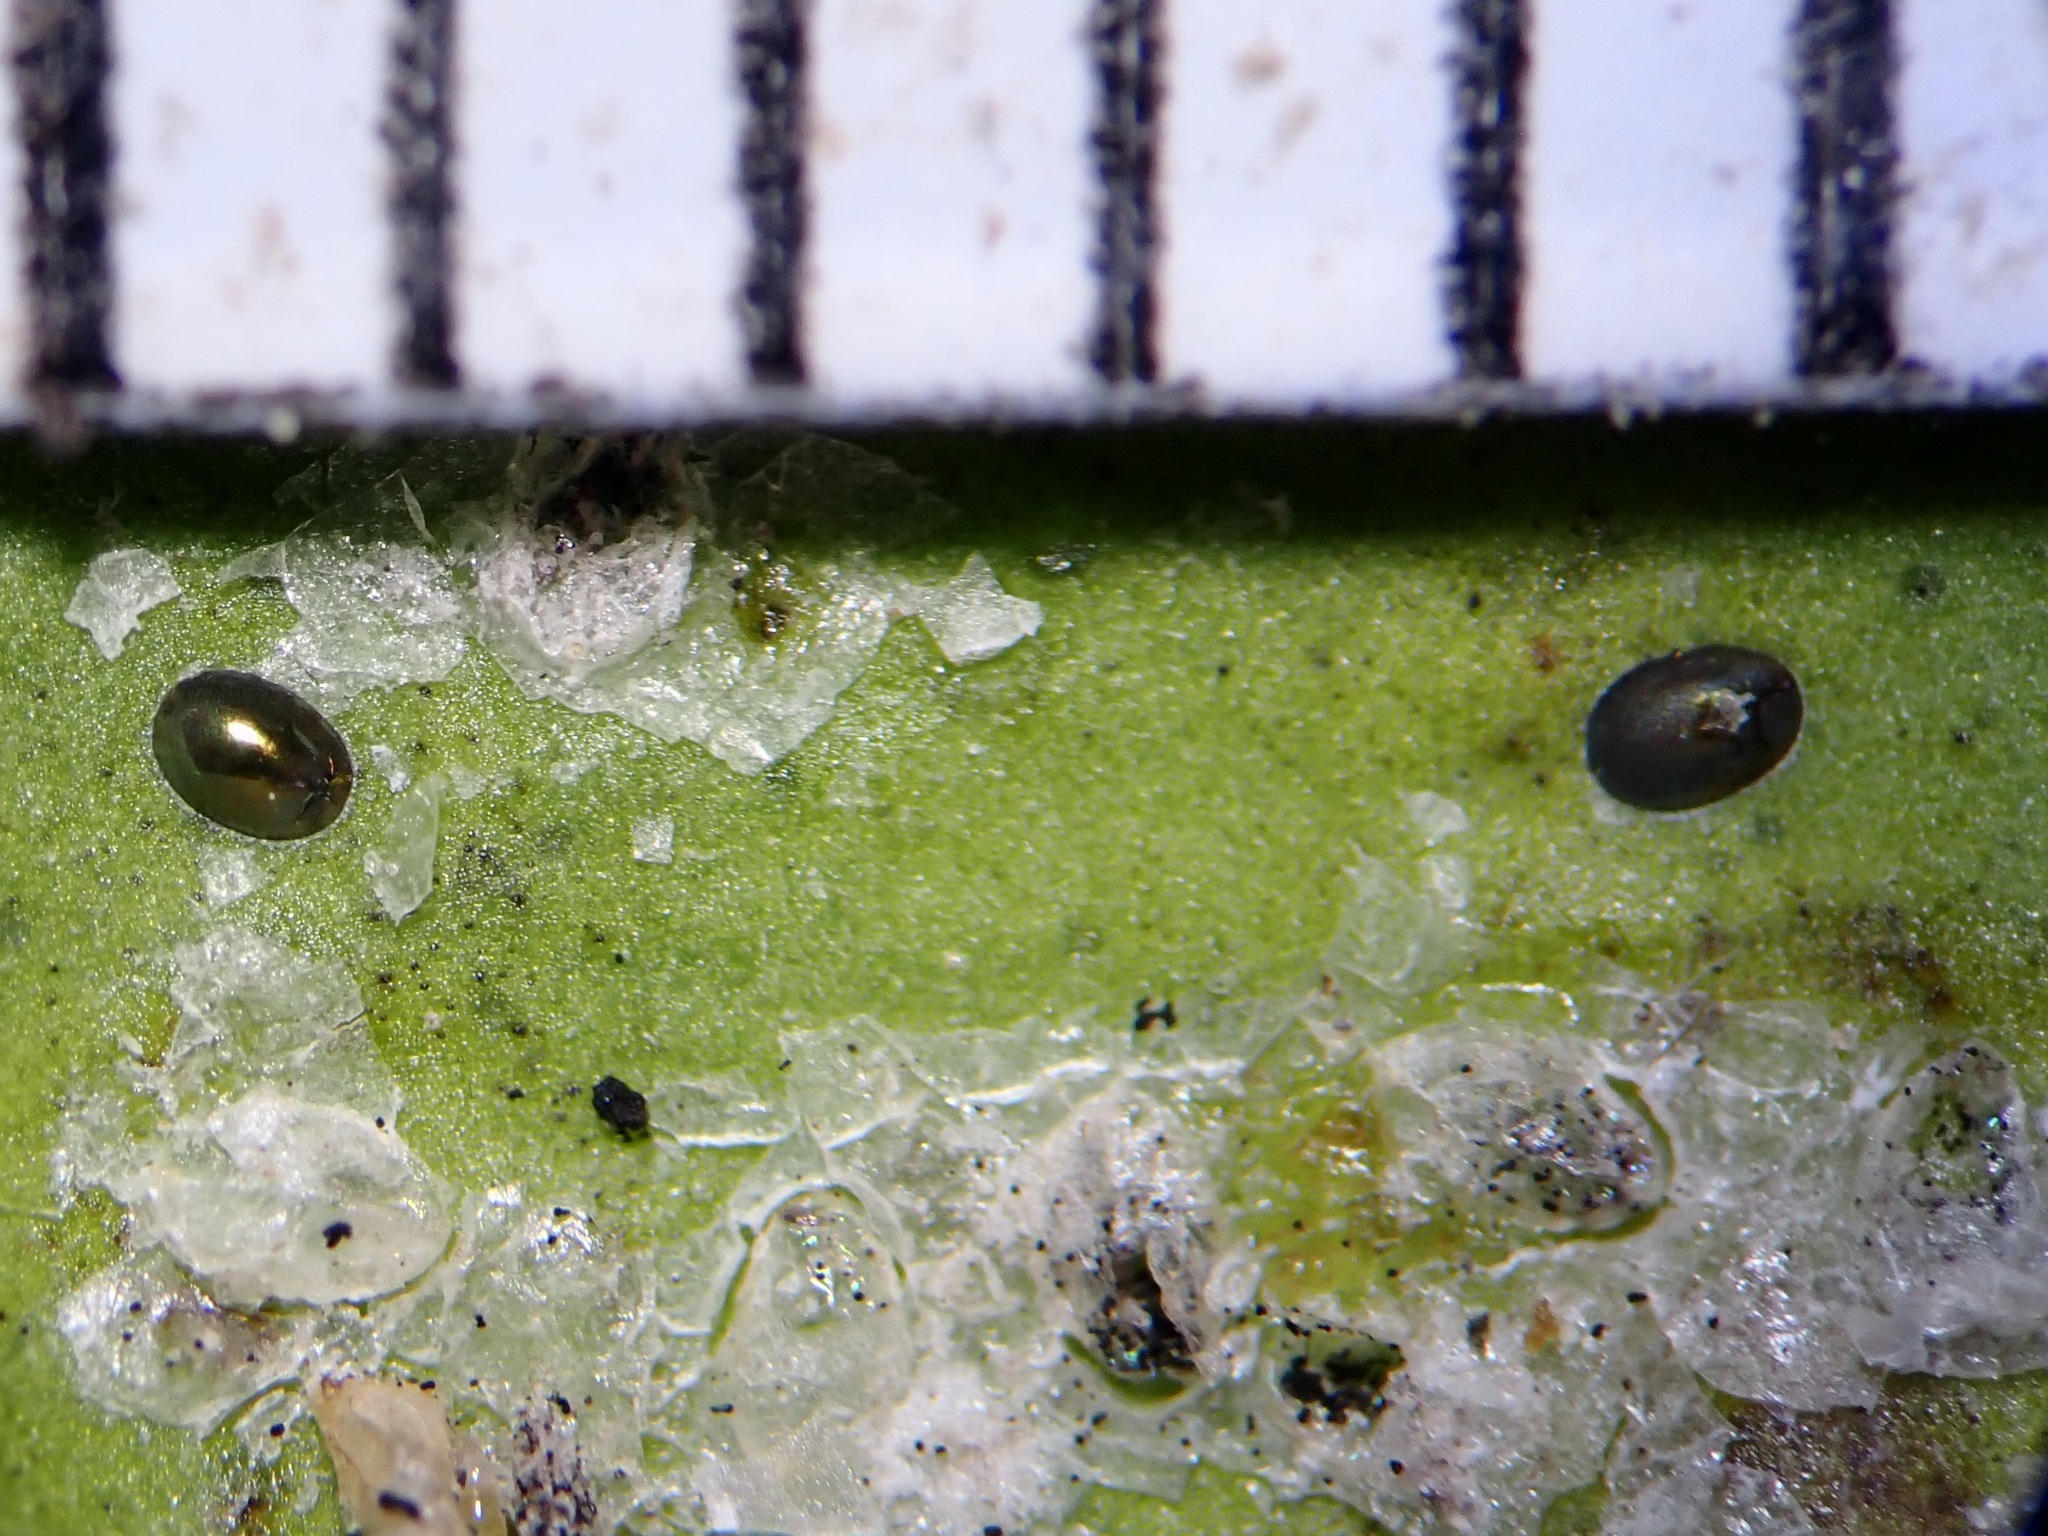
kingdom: Animalia
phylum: Arthropoda
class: Insecta
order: Hemiptera
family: Aleyrodidae
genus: Orchamoplatus
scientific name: Orchamoplatus citri
